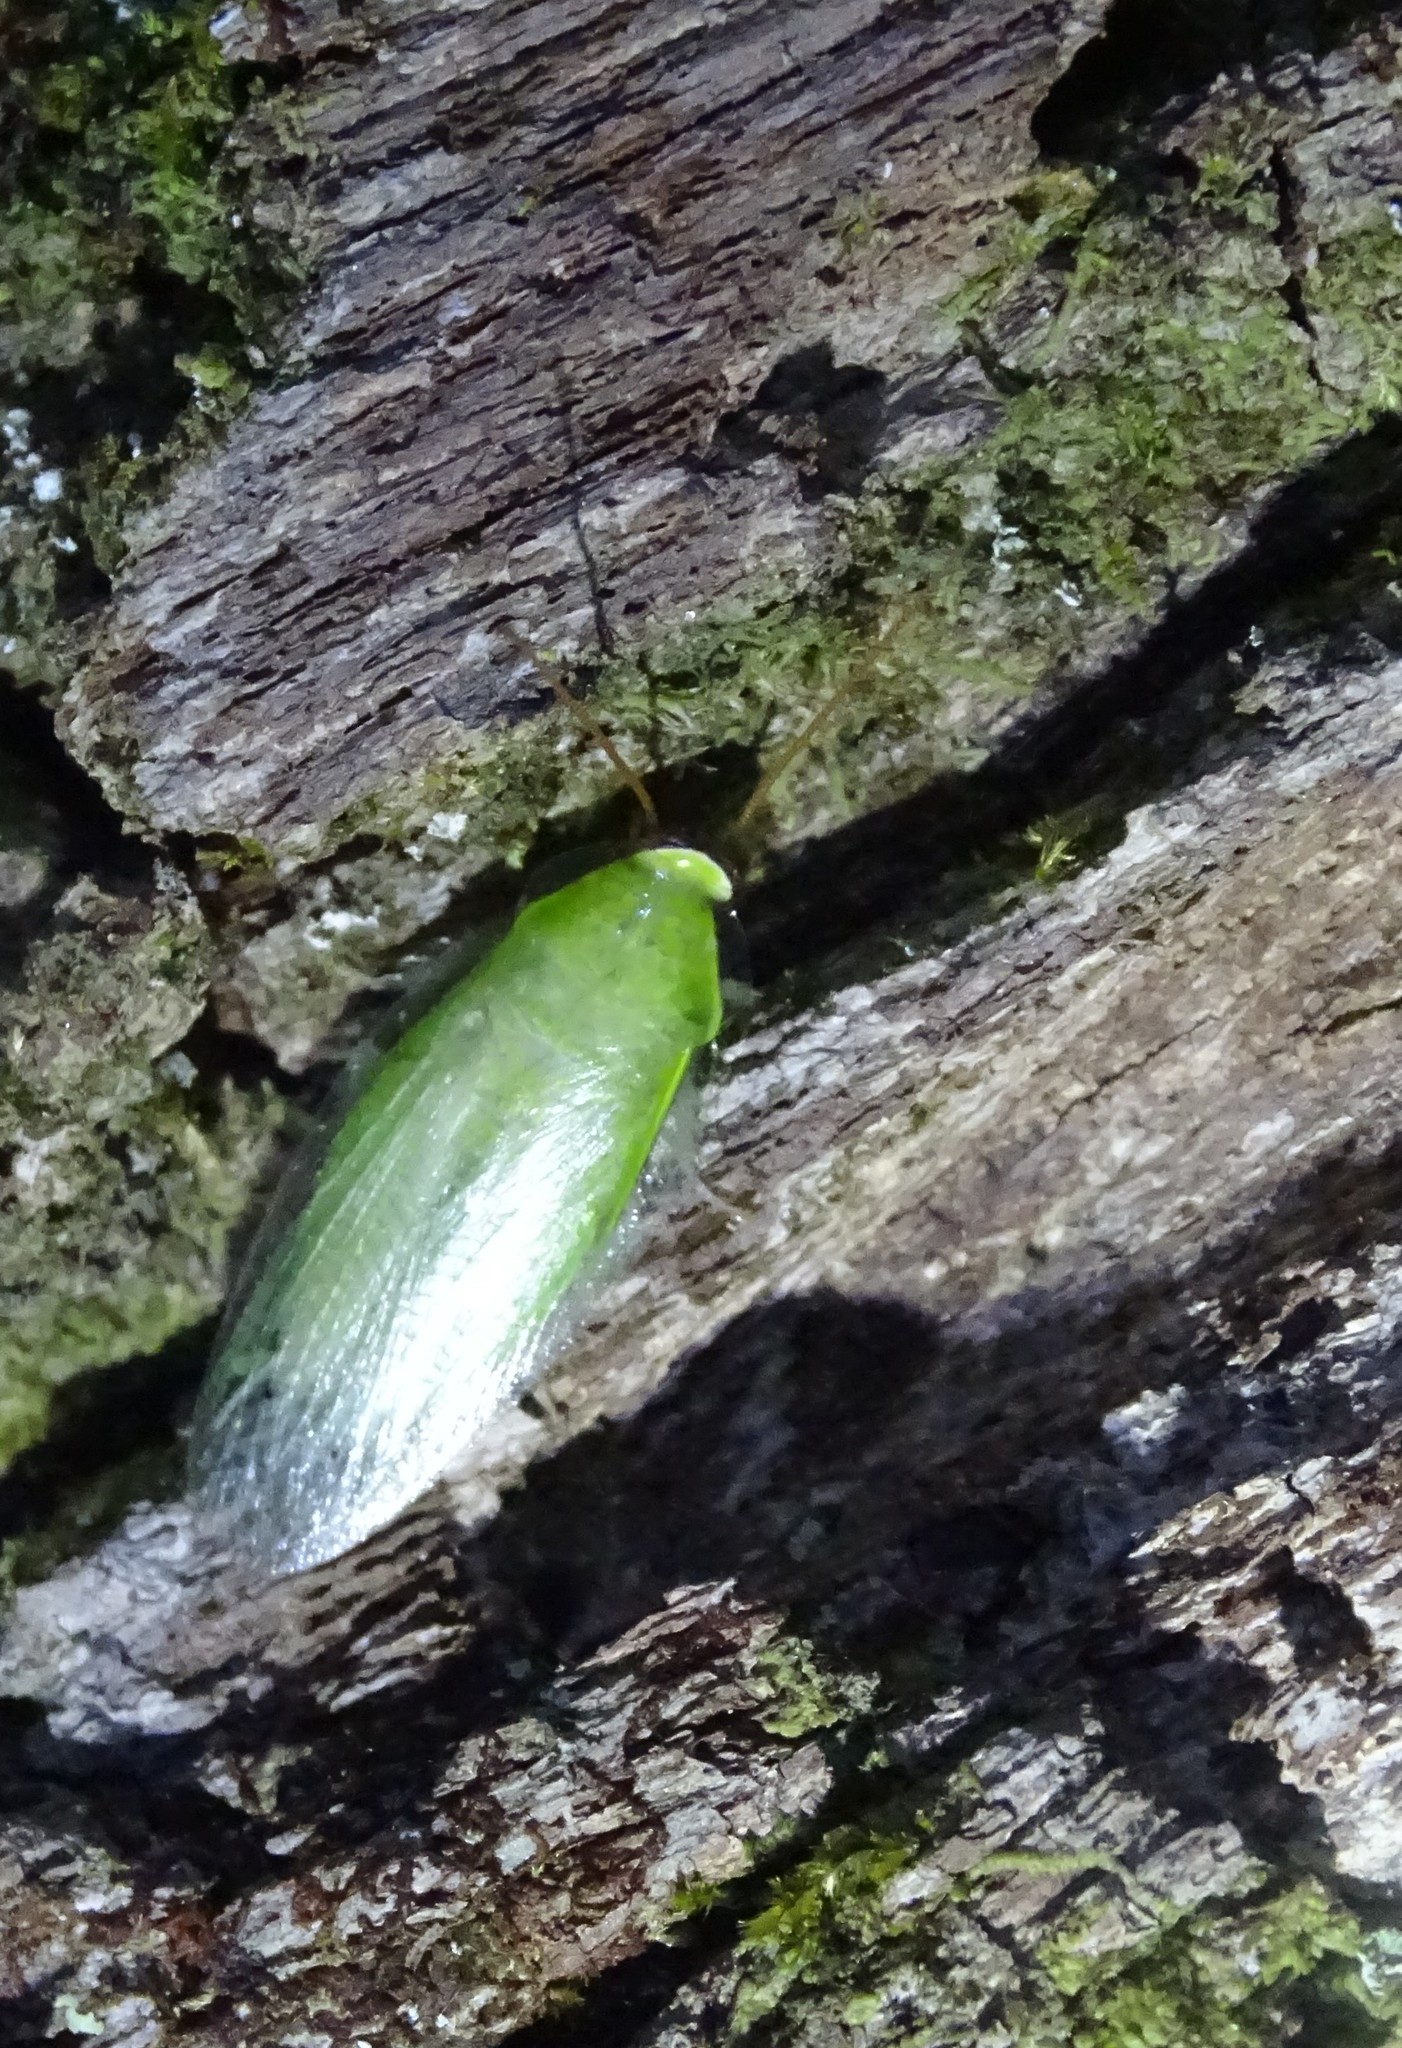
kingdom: Animalia
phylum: Arthropoda
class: Insecta
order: Blattodea
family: Blaberidae
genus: Panchlora
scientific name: Panchlora nivea
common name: Cuban cockroach
